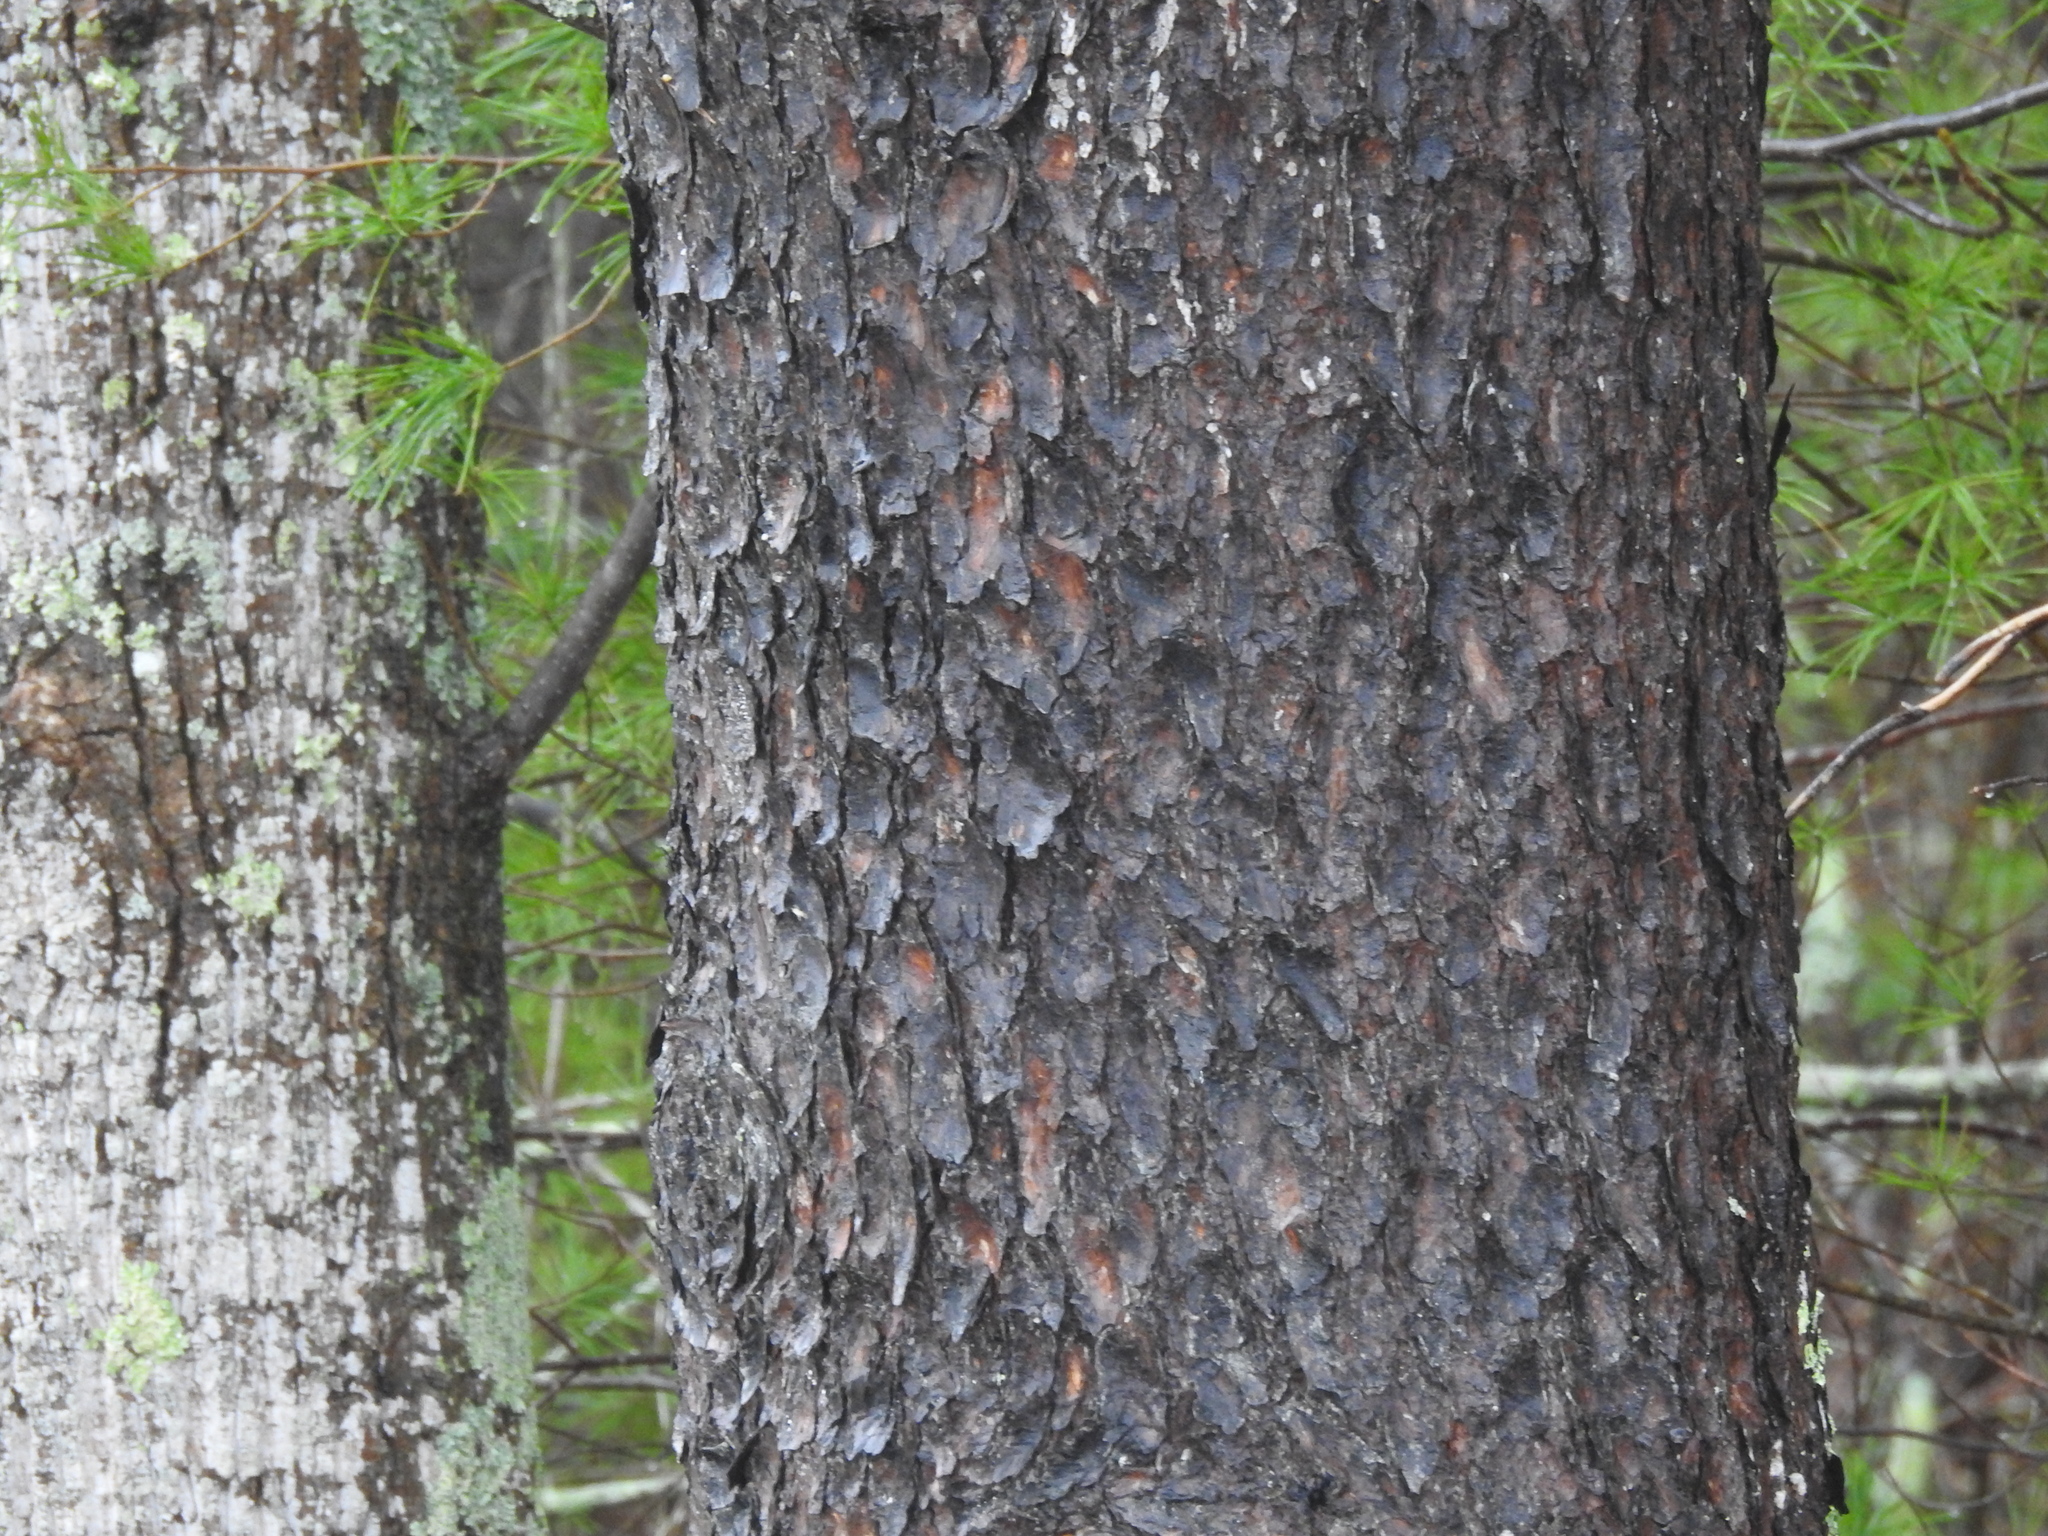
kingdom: Plantae
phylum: Tracheophyta
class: Pinopsida
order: Pinales
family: Pinaceae
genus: Pinus
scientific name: Pinus virginiana
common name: Scrub pine
